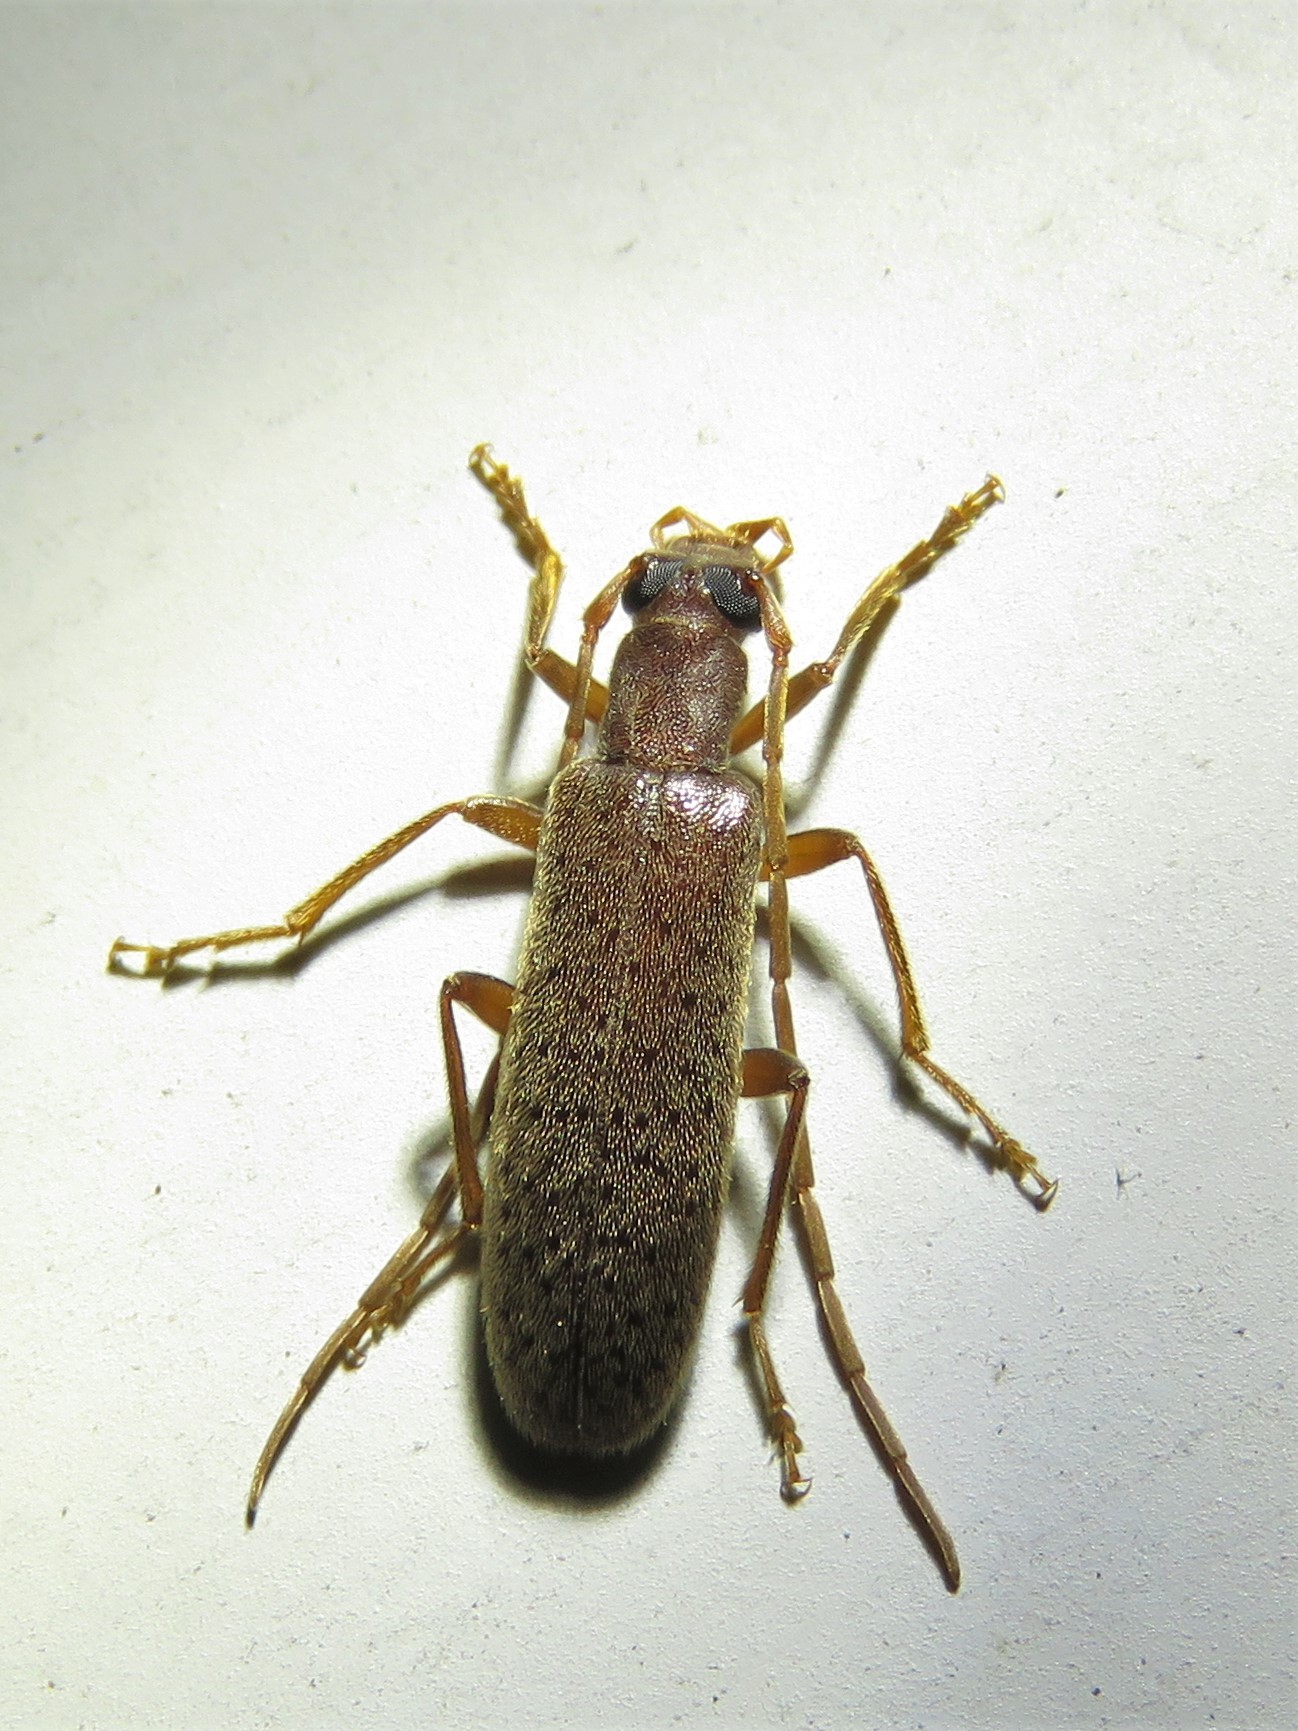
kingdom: Animalia
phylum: Arthropoda
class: Insecta
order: Coleoptera
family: Oedemeridae
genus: Sparedrus
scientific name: Sparedrus aspersus
